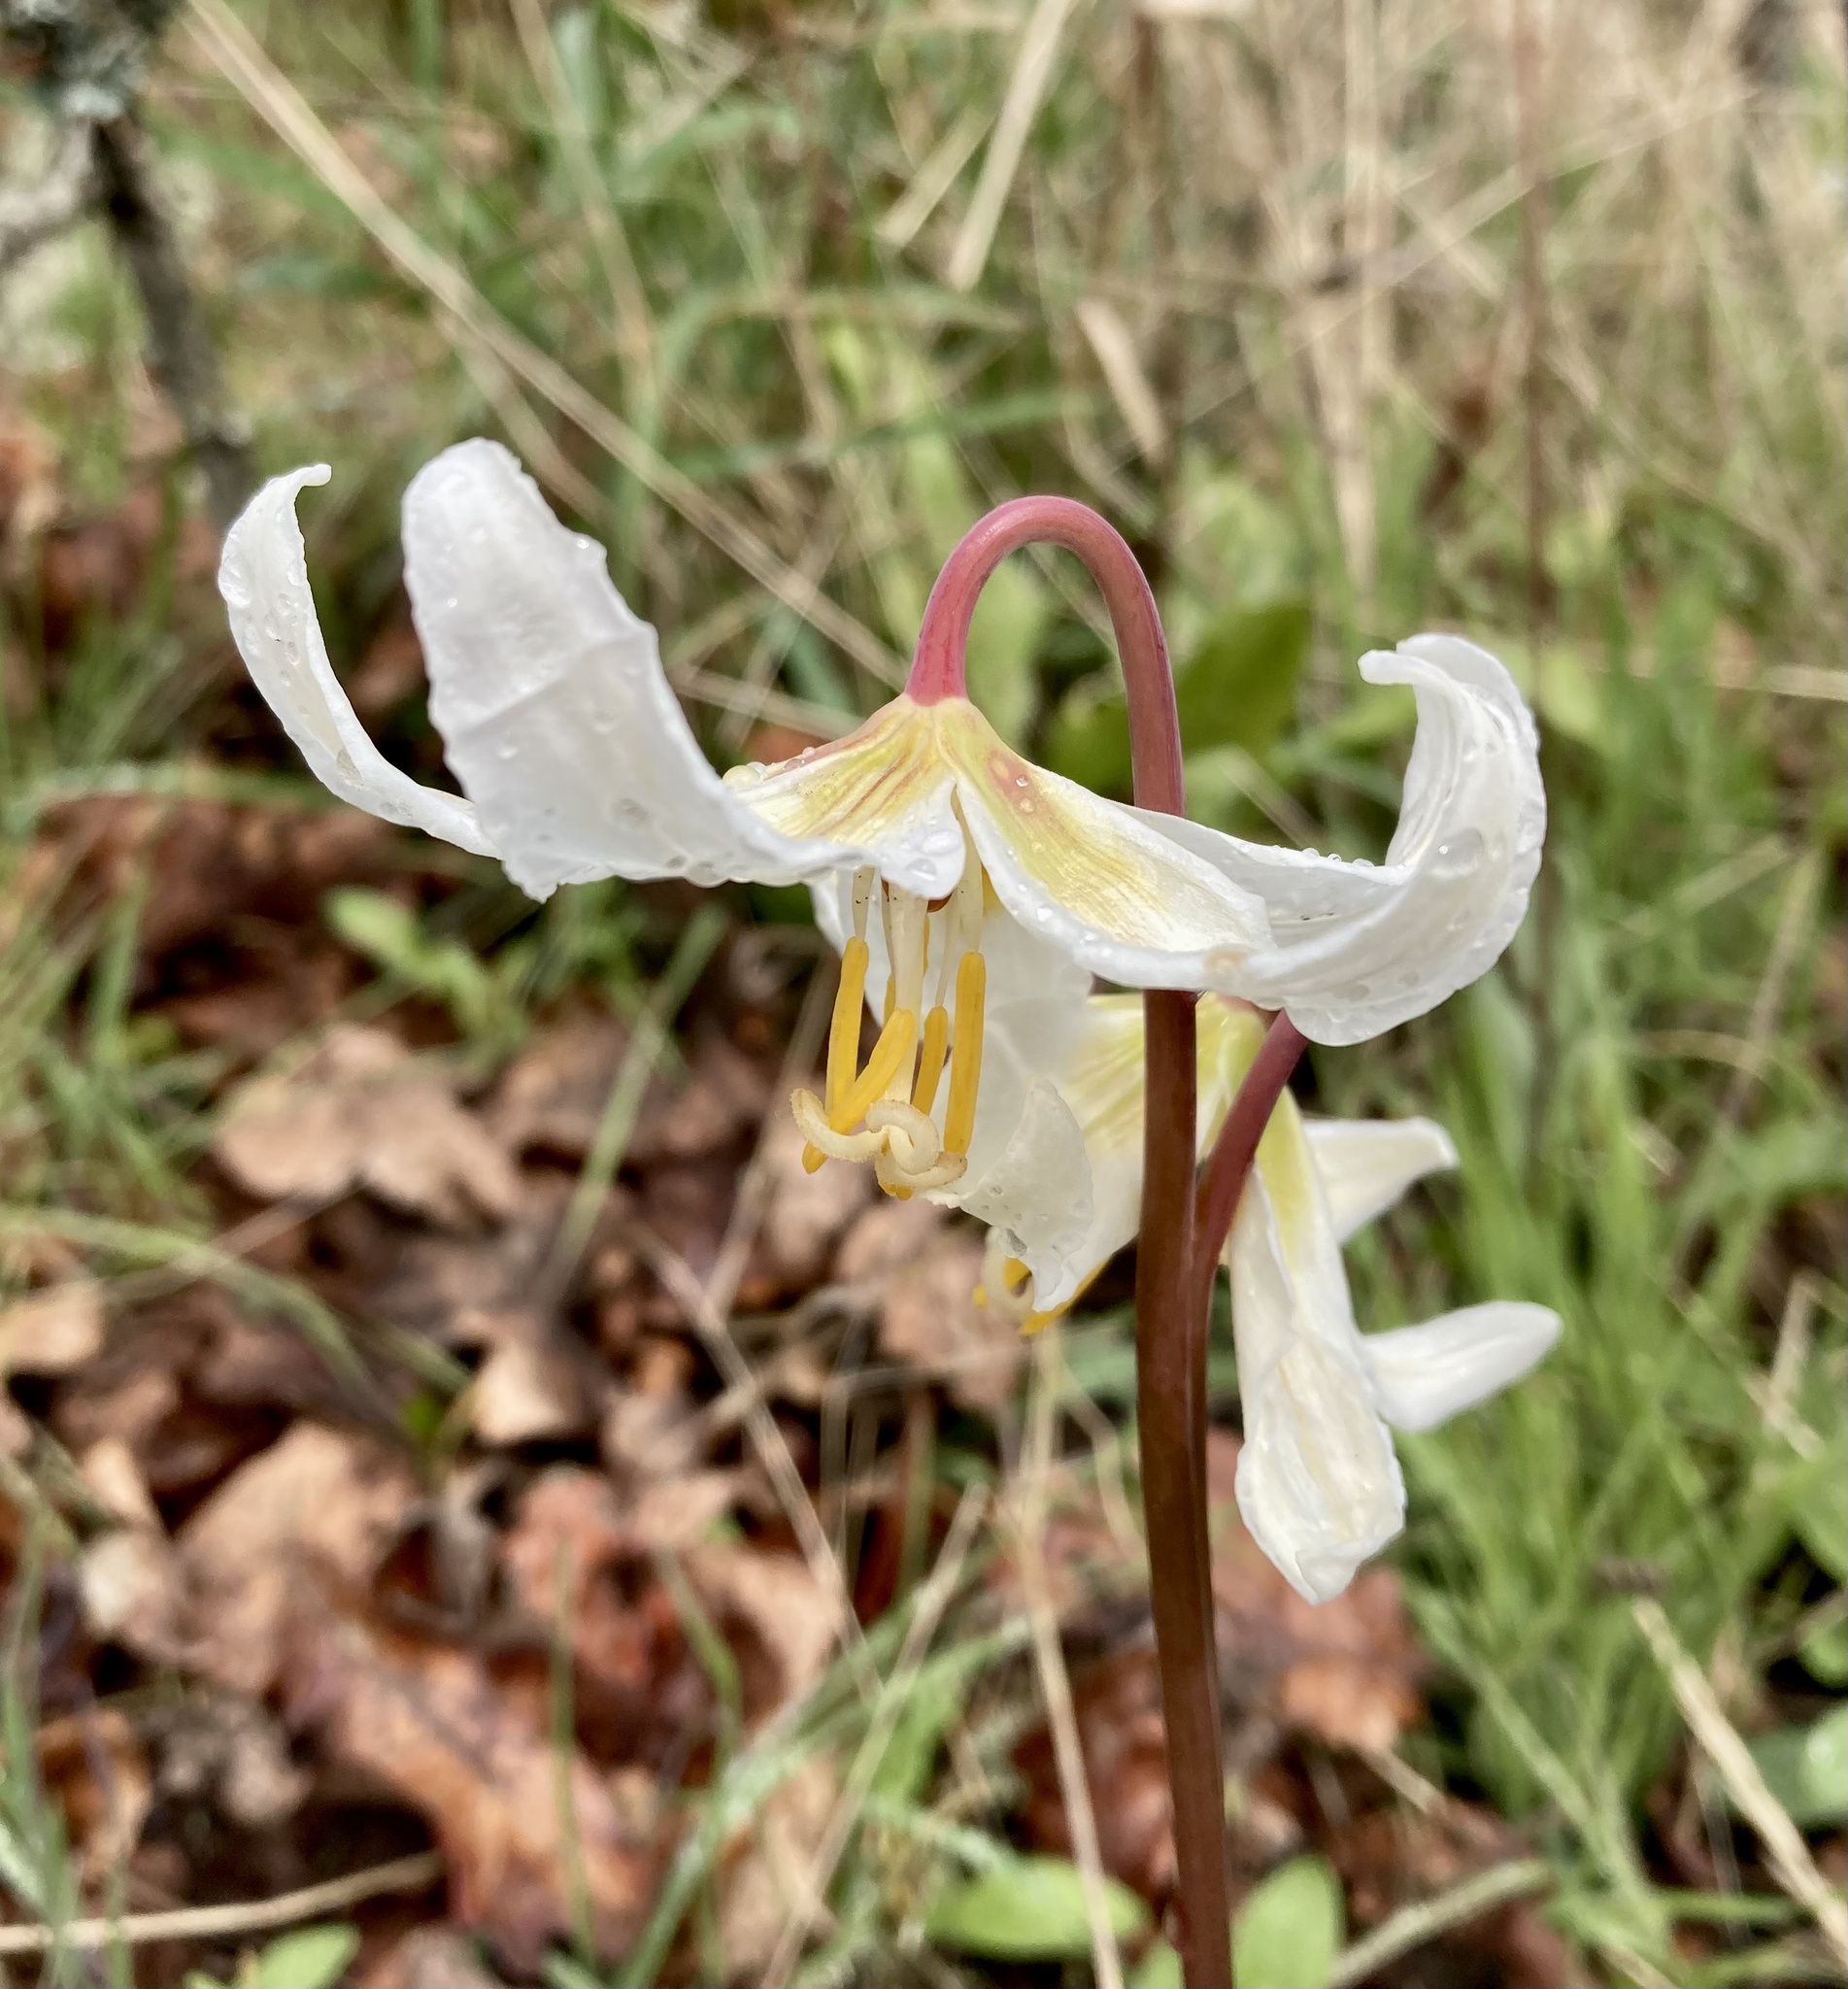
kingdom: Plantae
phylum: Tracheophyta
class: Liliopsida
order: Liliales
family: Liliaceae
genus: Erythronium
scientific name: Erythronium oregonum
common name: Giant adder's-tongue
